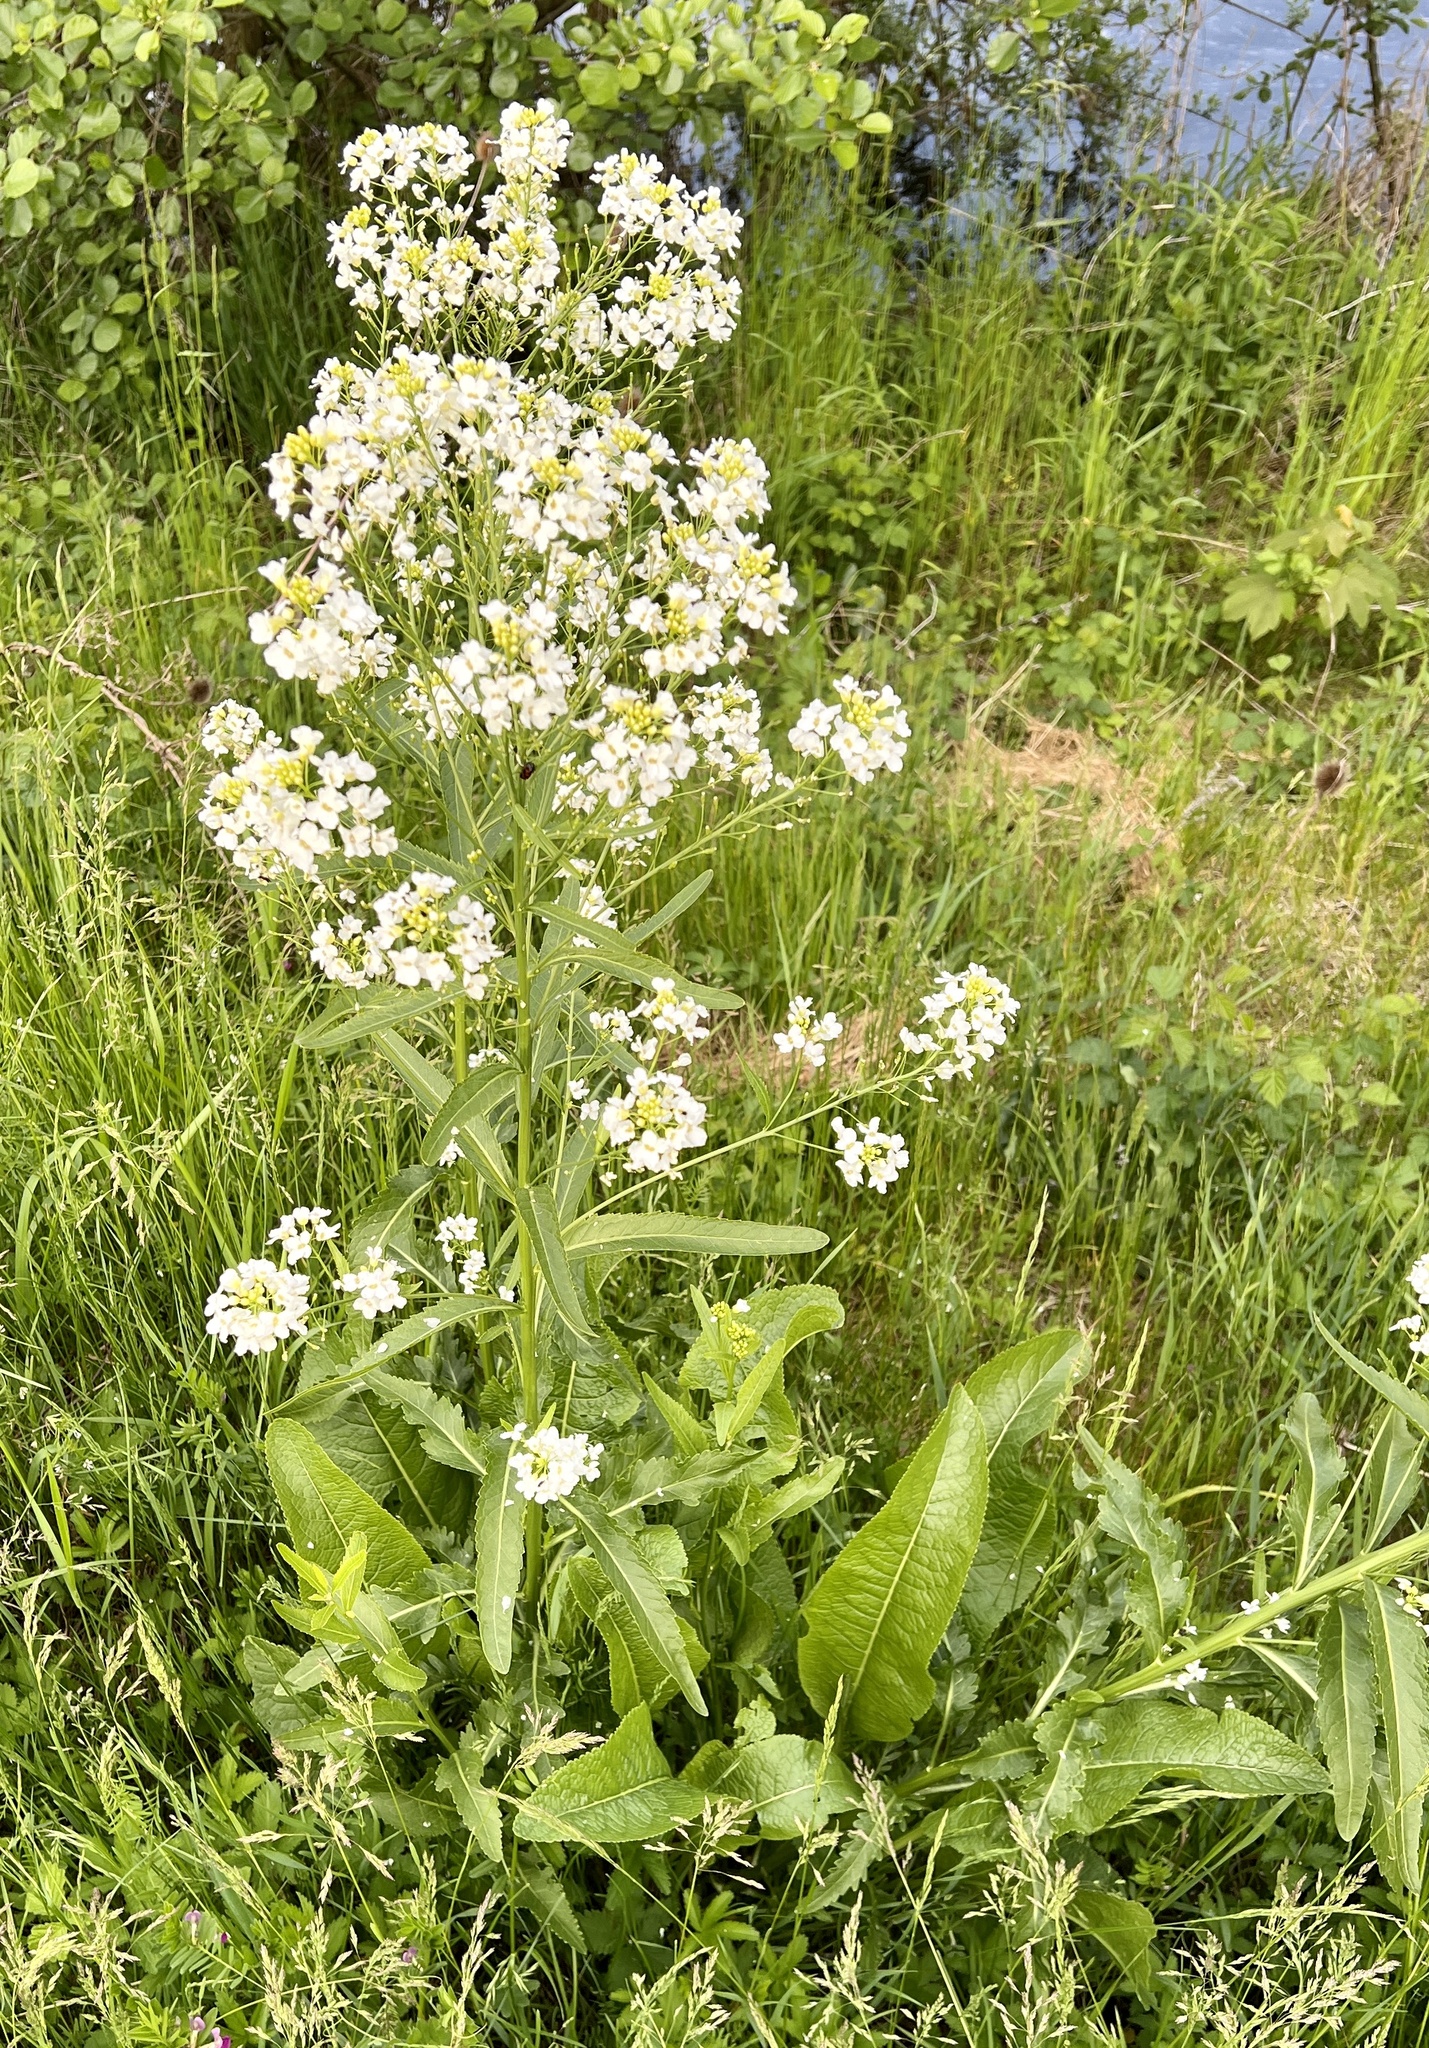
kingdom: Plantae
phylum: Tracheophyta
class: Magnoliopsida
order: Brassicales
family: Brassicaceae
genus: Armoracia
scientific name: Armoracia rusticana
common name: Horseradish
